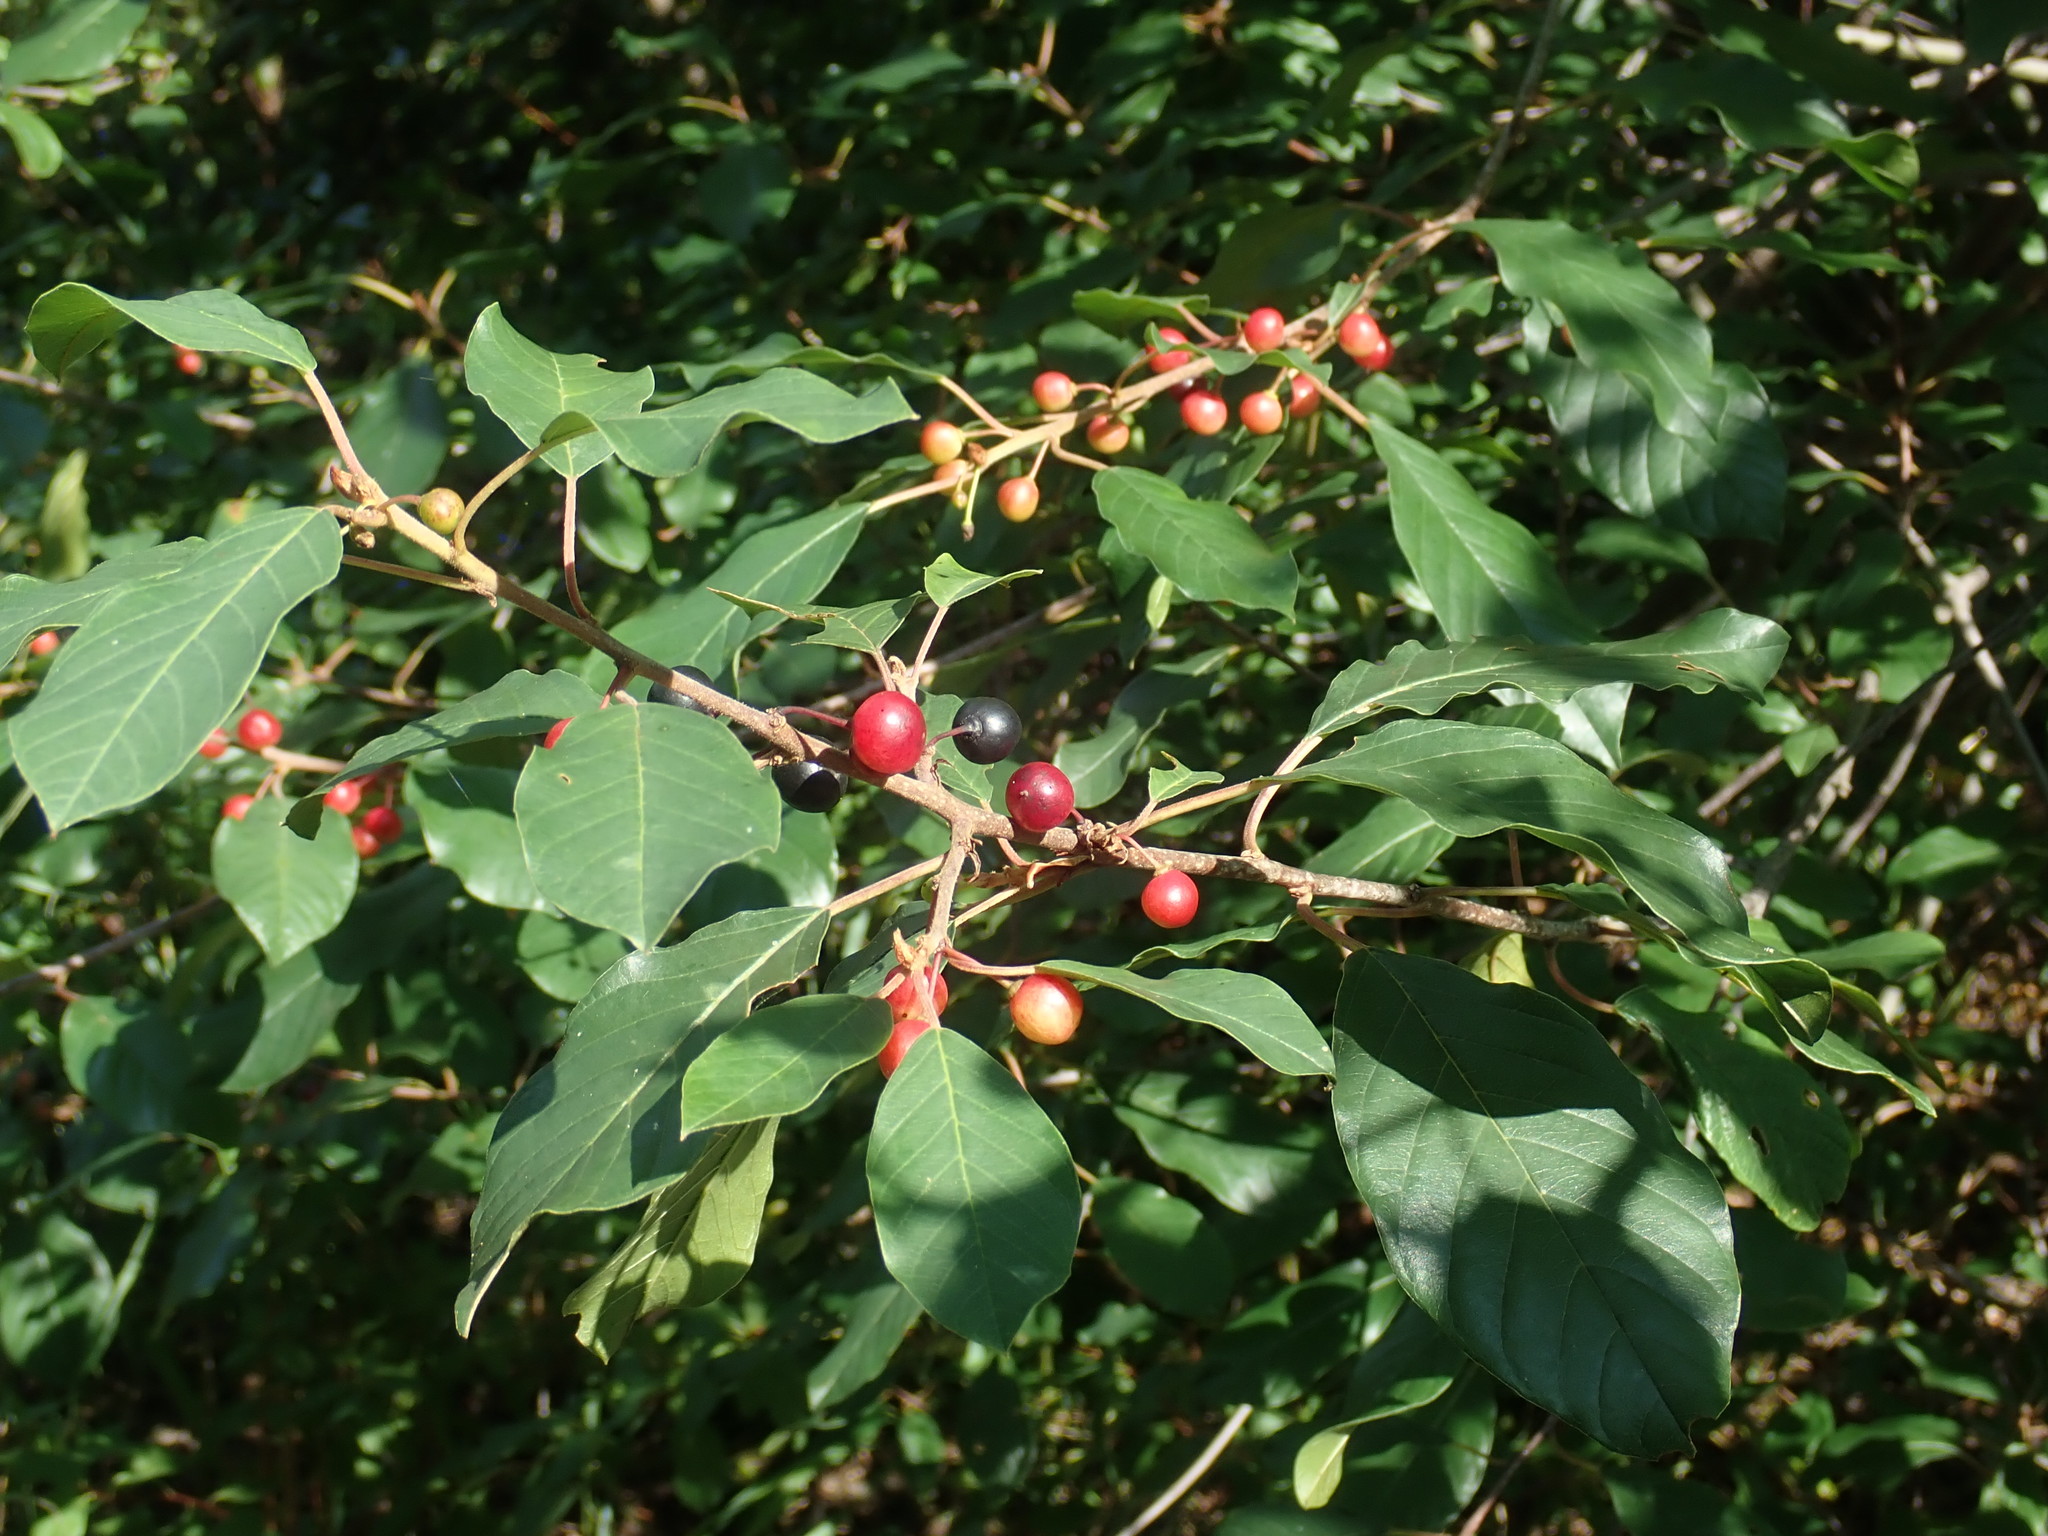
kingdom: Plantae
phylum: Tracheophyta
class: Magnoliopsida
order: Rosales
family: Rhamnaceae
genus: Frangula
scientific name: Frangula alnus
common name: Alder buckthorn
